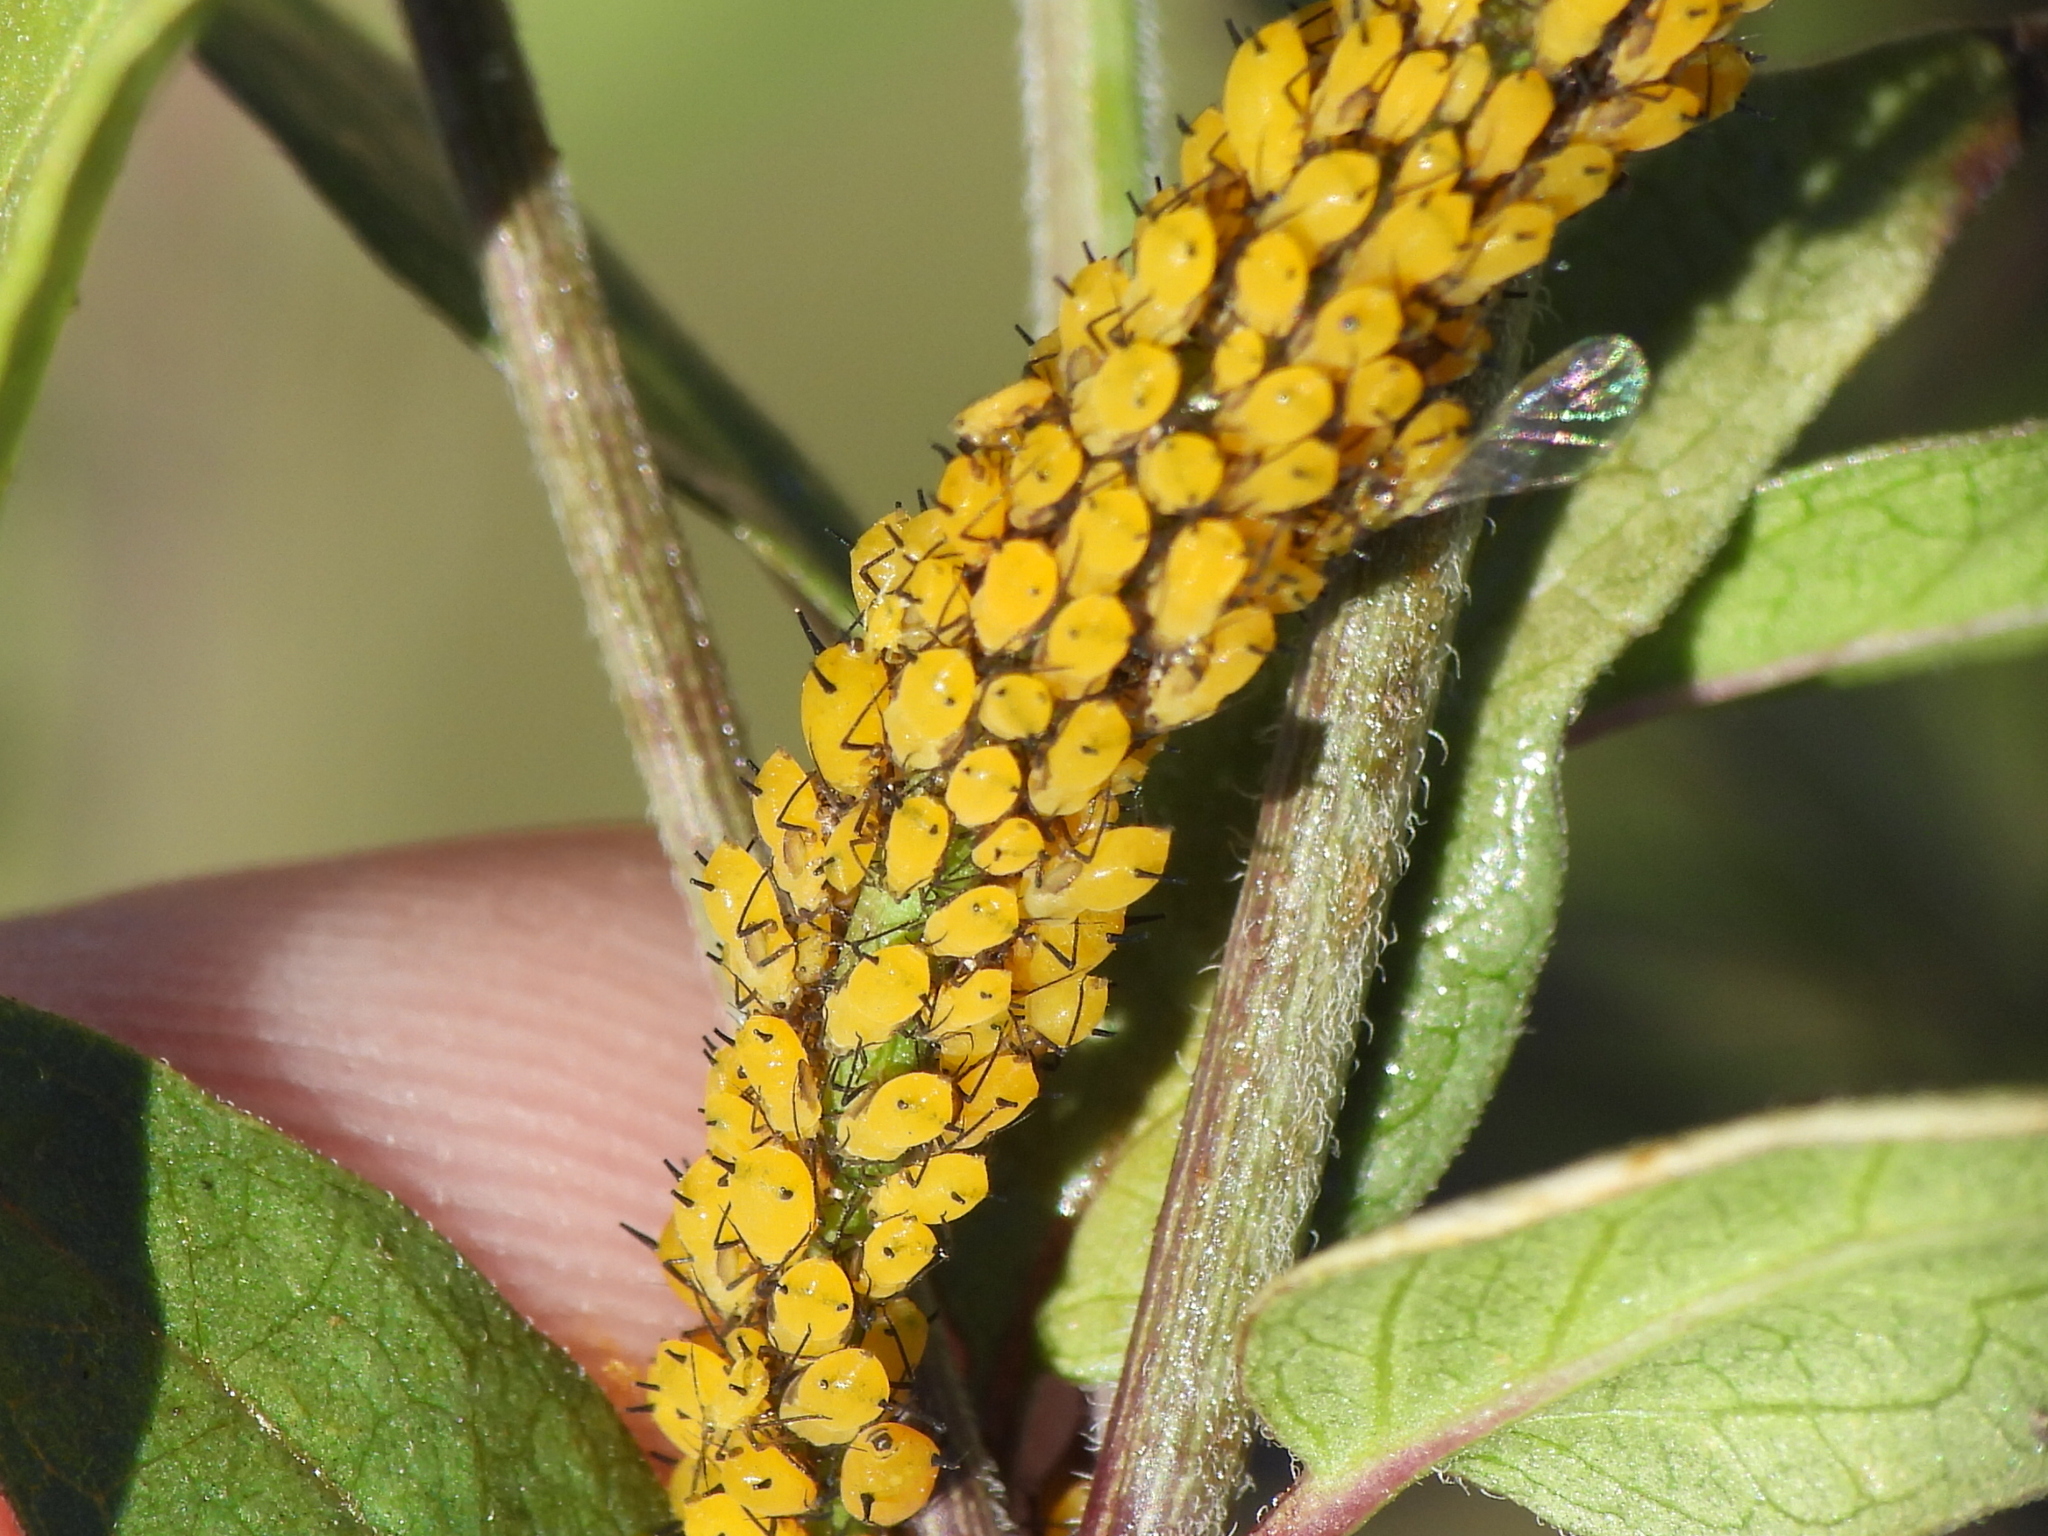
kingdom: Animalia
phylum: Arthropoda
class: Insecta
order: Hemiptera
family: Aphididae
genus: Aphis
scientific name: Aphis nerii
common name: Oleander aphid
